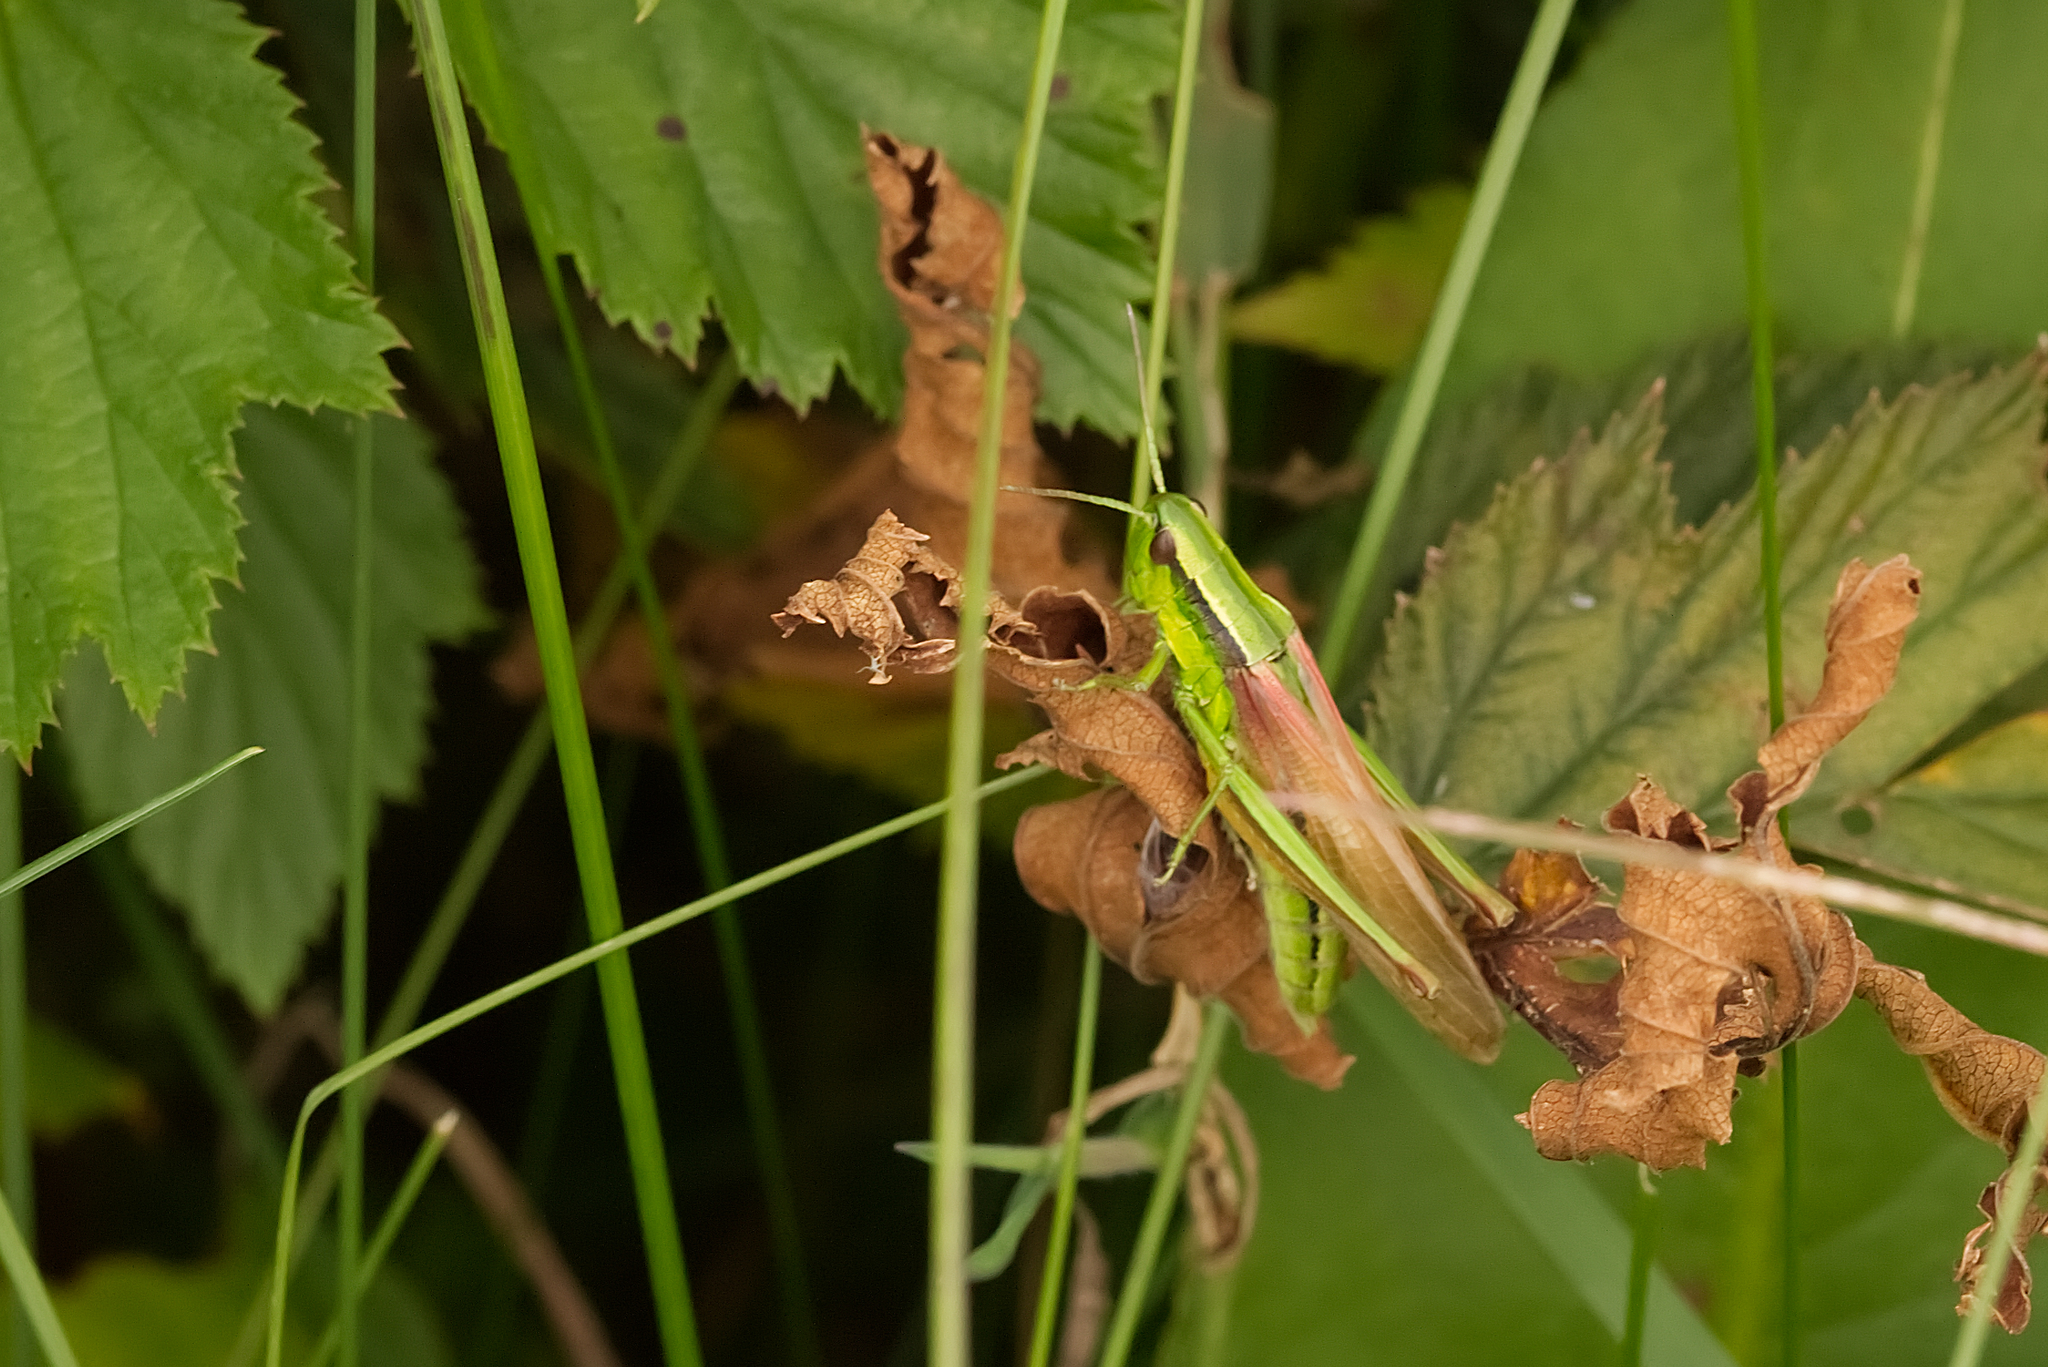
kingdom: Animalia
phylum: Arthropoda
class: Insecta
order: Orthoptera
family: Acrididae
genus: Euthystira
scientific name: Euthystira brachyptera
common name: Small gold grasshopper
